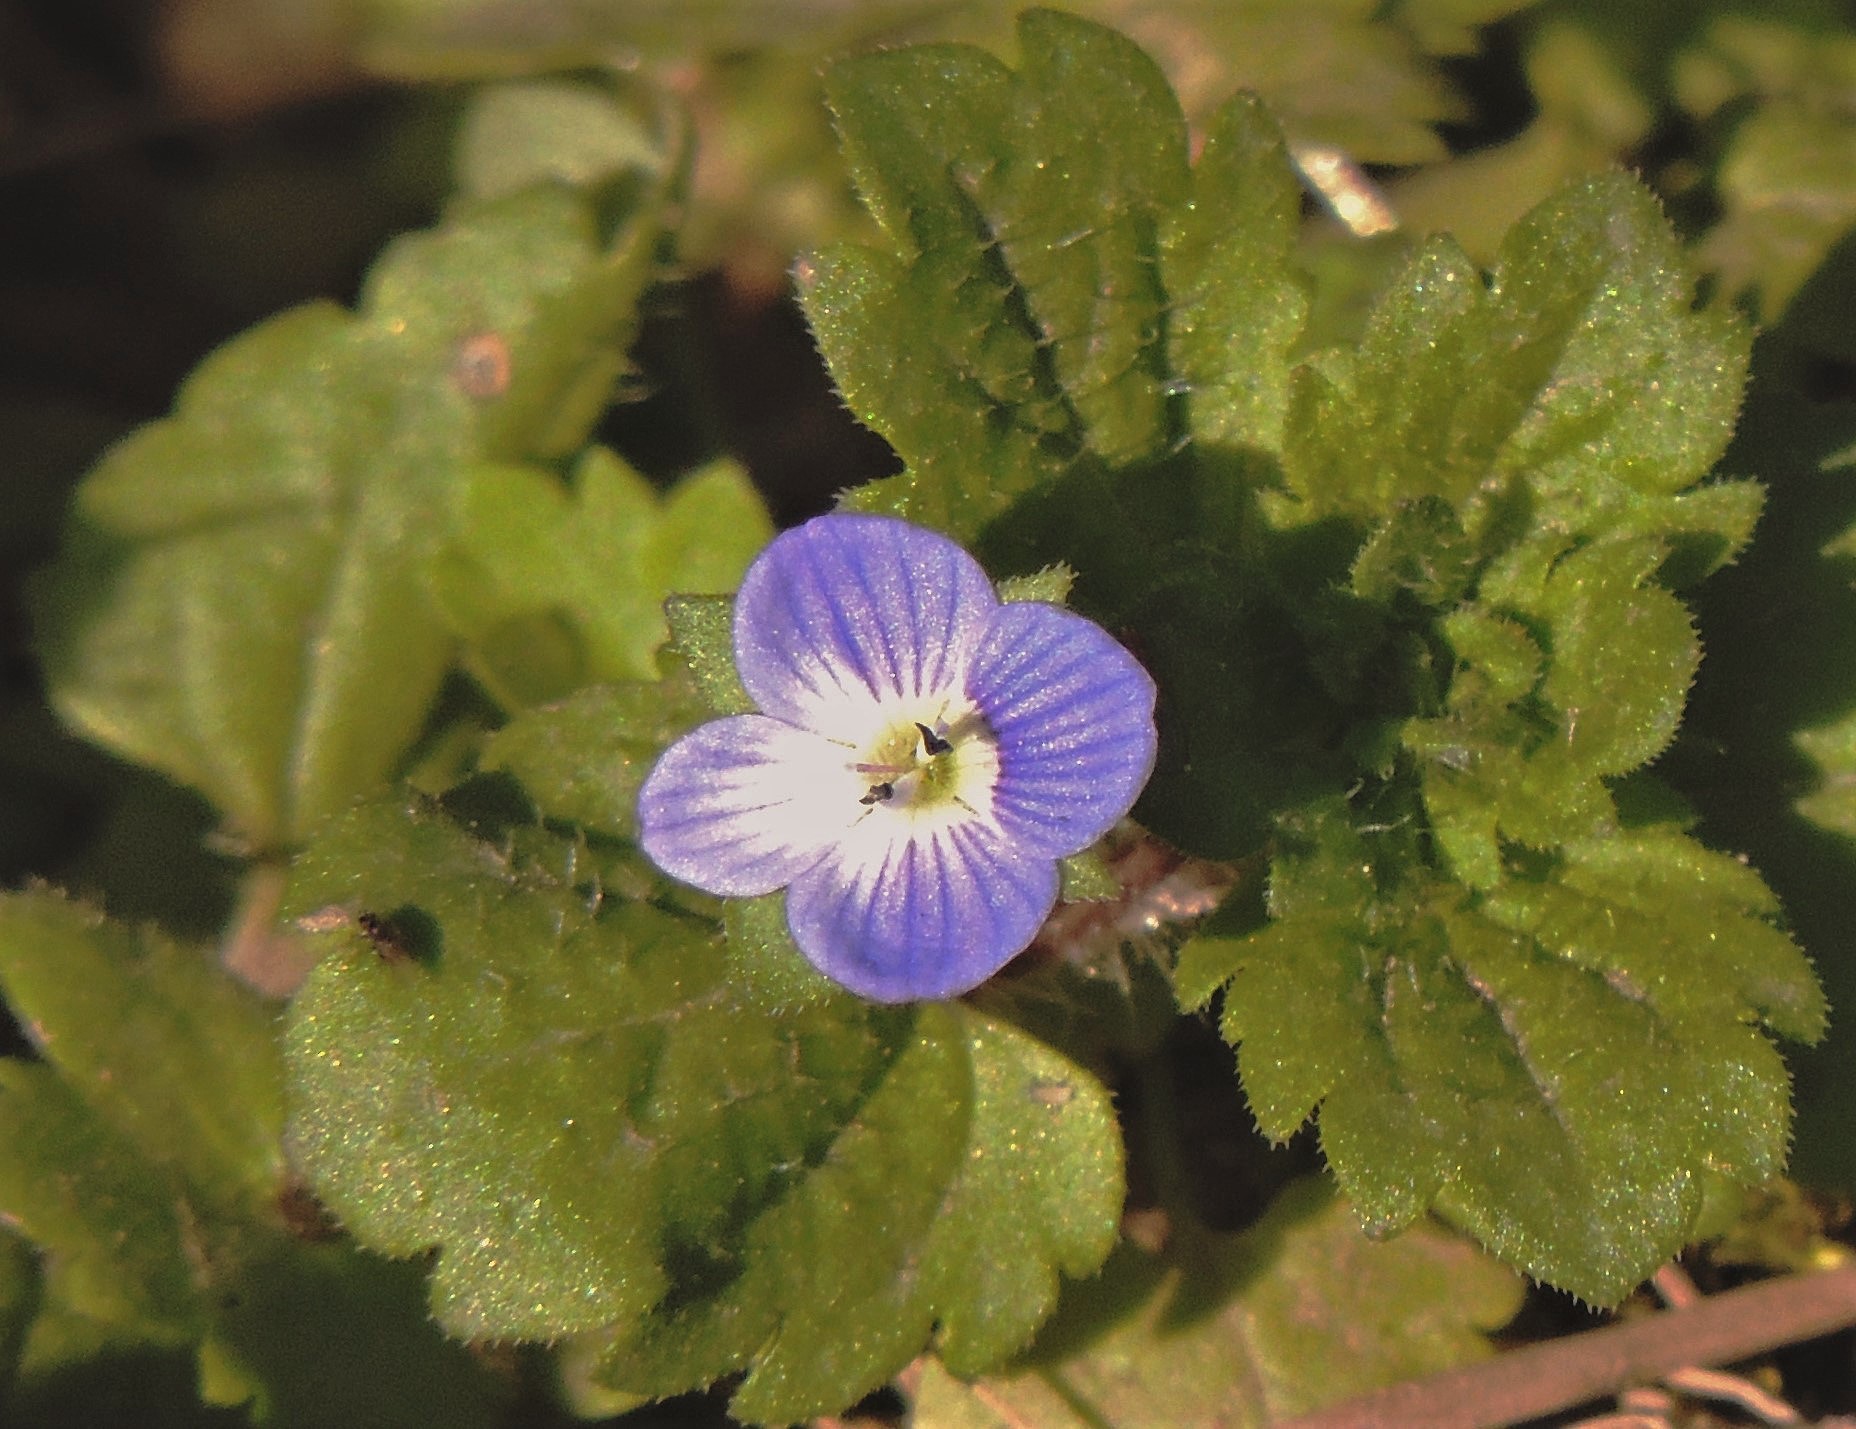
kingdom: Plantae
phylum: Tracheophyta
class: Magnoliopsida
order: Lamiales
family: Plantaginaceae
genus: Veronica
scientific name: Veronica persica
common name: Common field-speedwell
